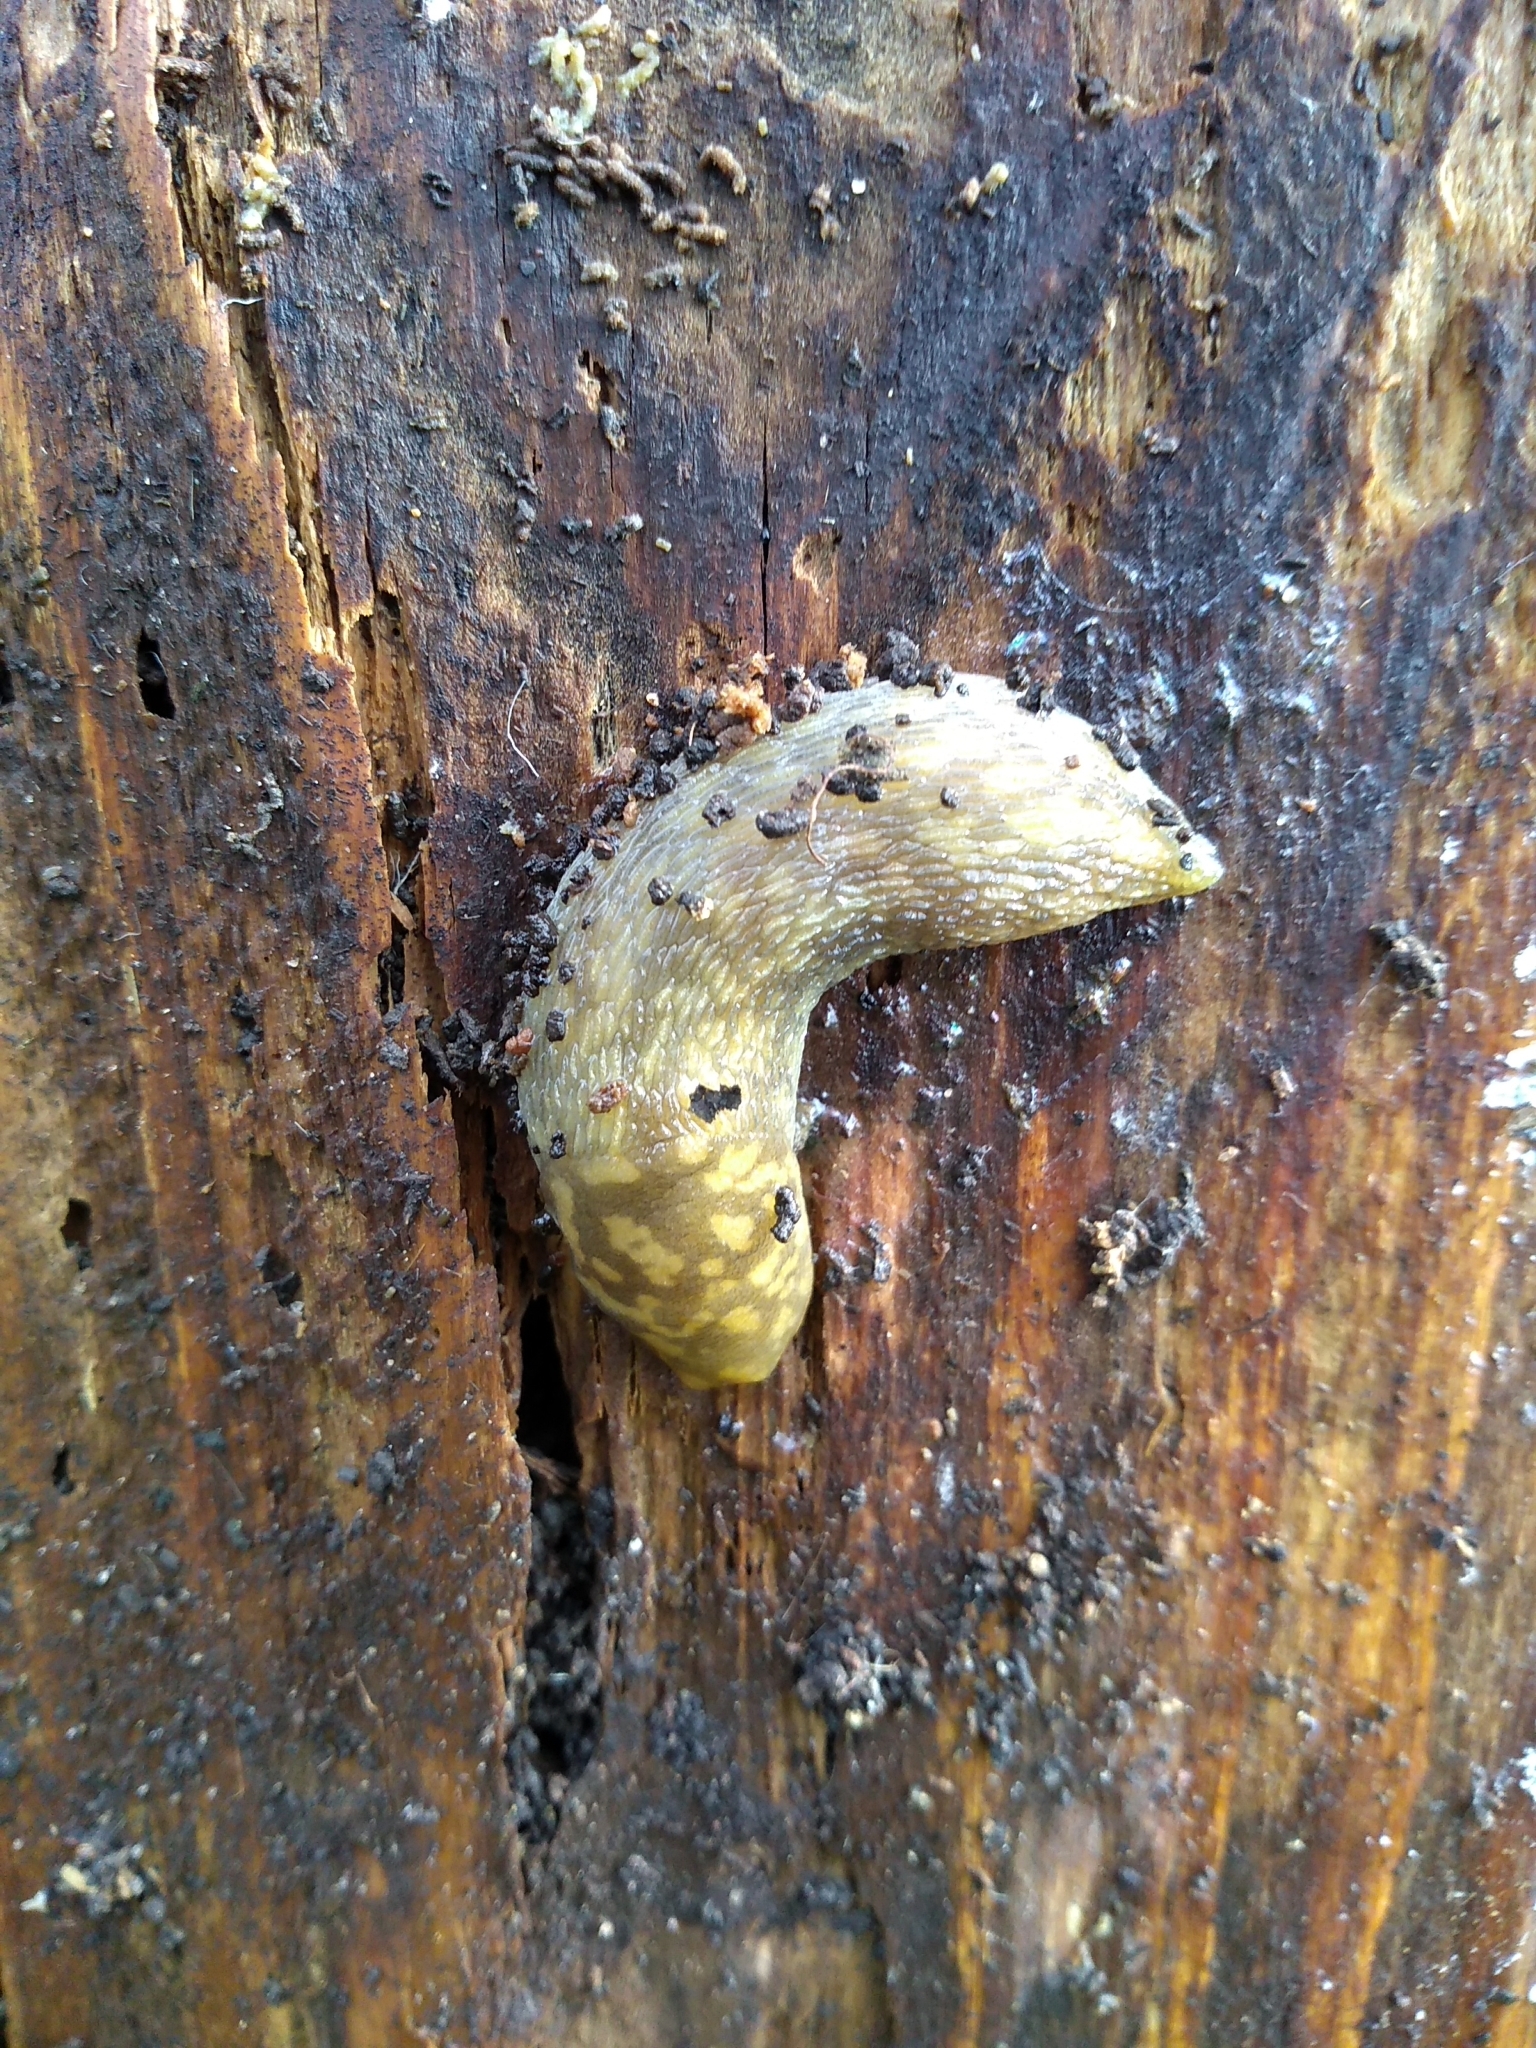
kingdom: Animalia
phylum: Mollusca
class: Gastropoda
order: Stylommatophora
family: Limacidae
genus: Limacus
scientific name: Limacus maculatus
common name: Irish yellow slug
